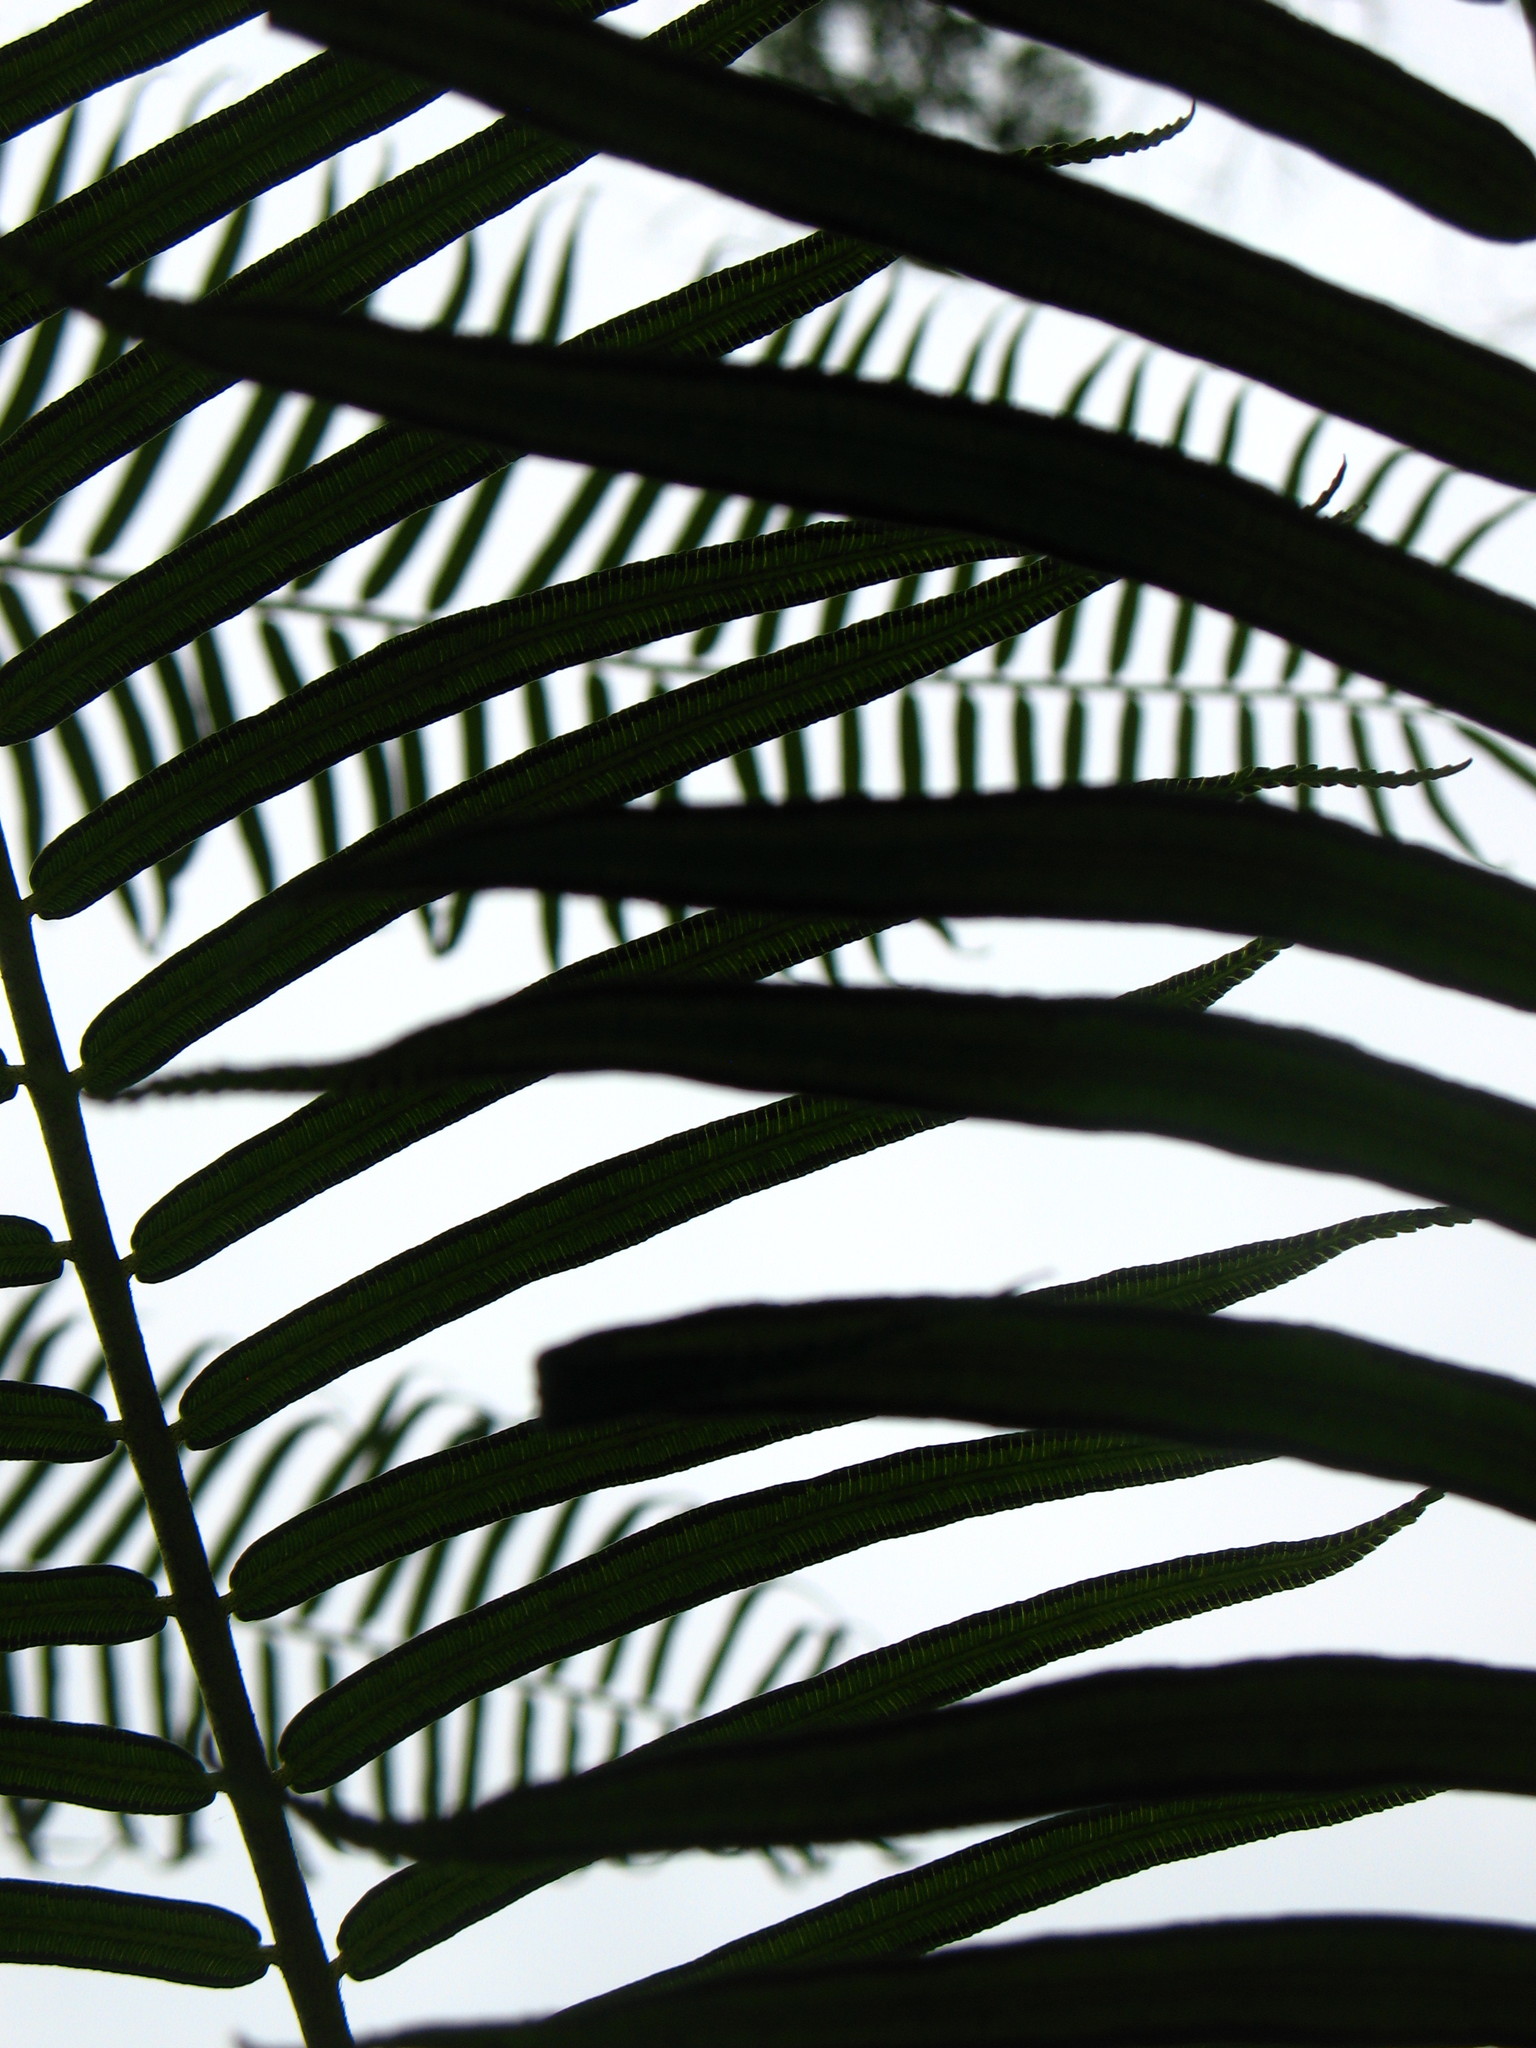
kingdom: Plantae
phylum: Tracheophyta
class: Polypodiopsida
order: Marattiales
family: Marattiaceae
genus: Angiopteris
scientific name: Angiopteris evecta
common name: Mule's-foot fern
